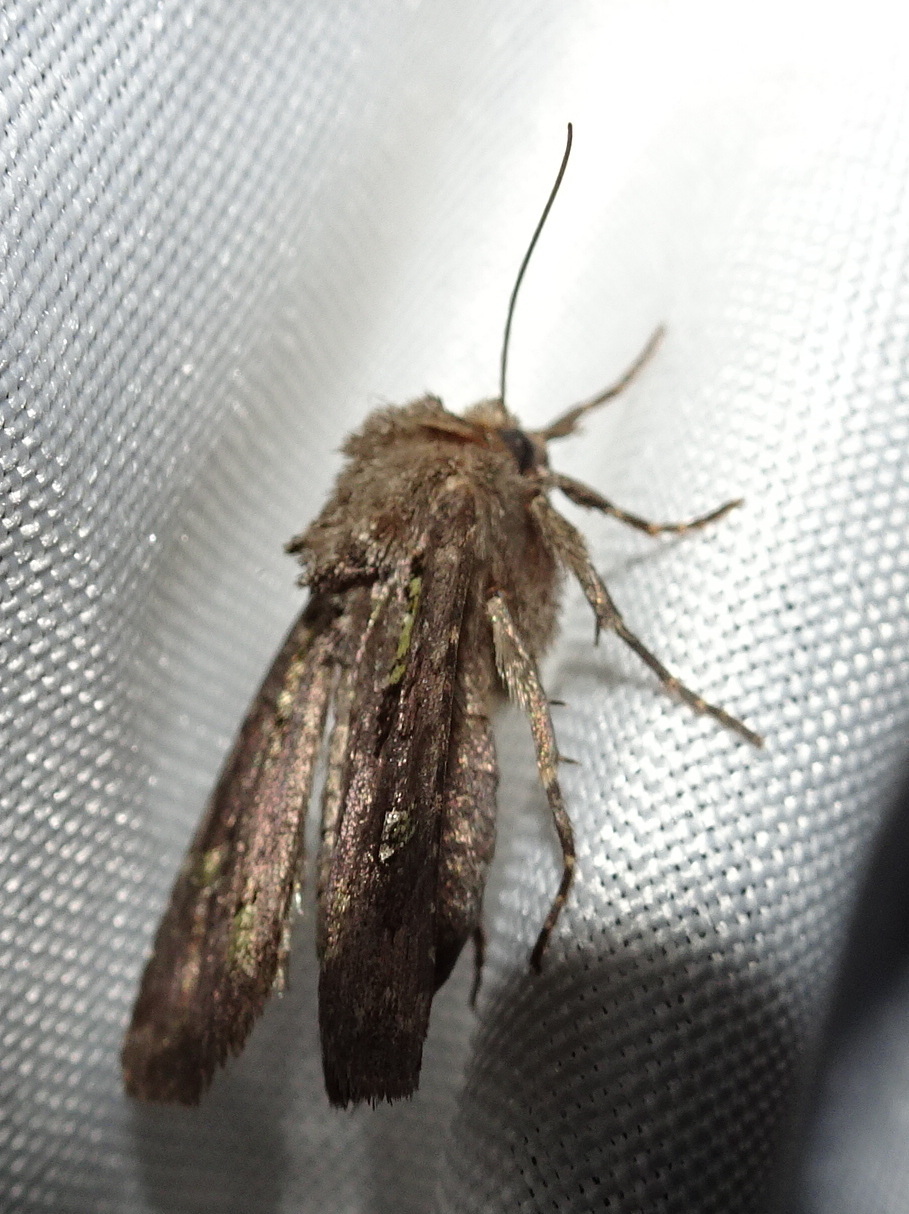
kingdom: Animalia
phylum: Arthropoda
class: Insecta
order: Lepidoptera
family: Noctuidae
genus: Lacinipolia
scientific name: Lacinipolia renigera
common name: Kidney-spotted minor
